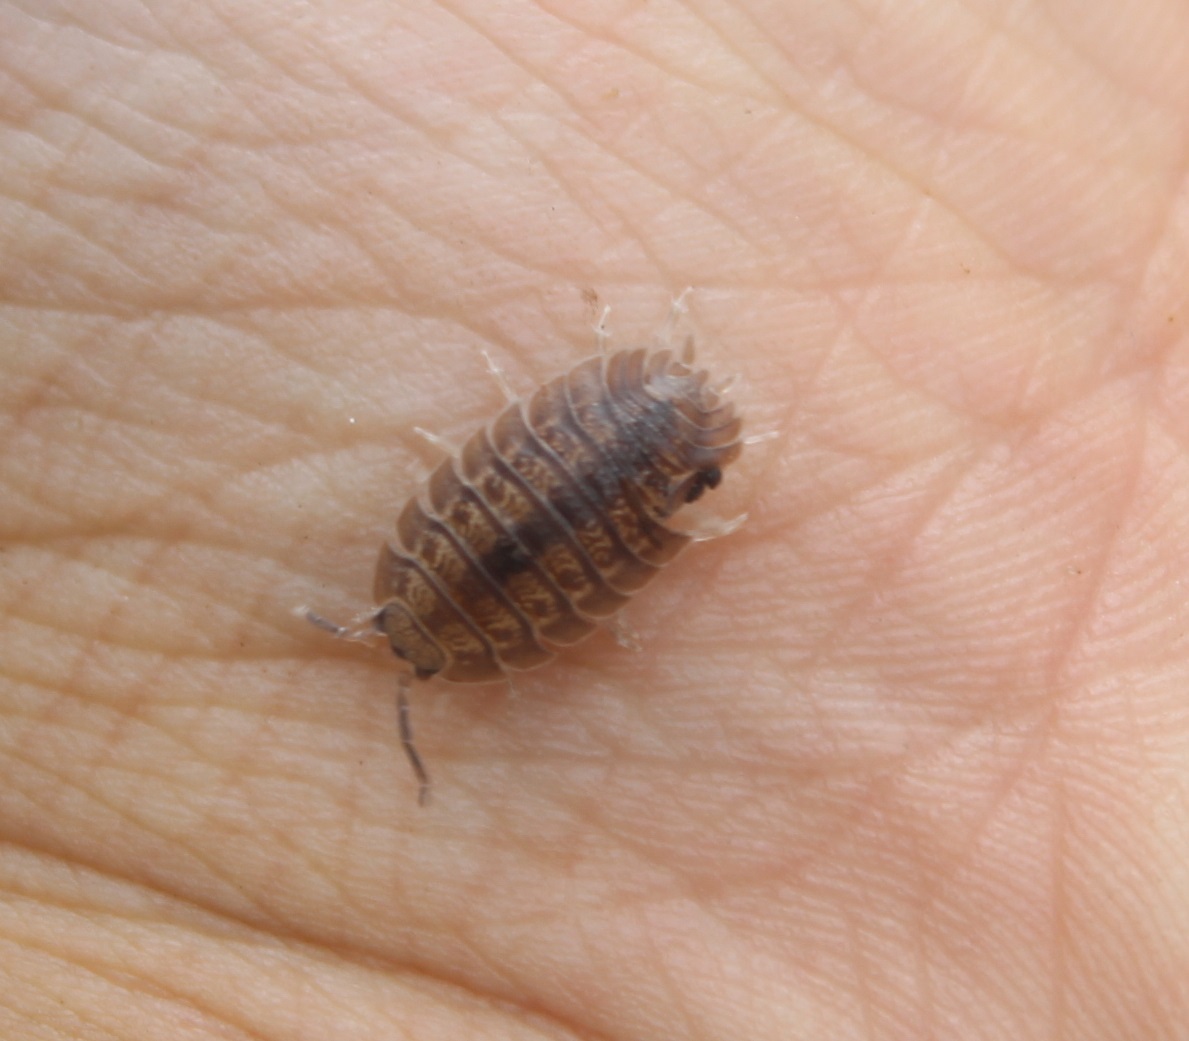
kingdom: Animalia
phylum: Arthropoda
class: Malacostraca
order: Isopoda
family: Porcellionidae
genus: Porcellio
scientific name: Porcellio dilatatus
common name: Isopod
